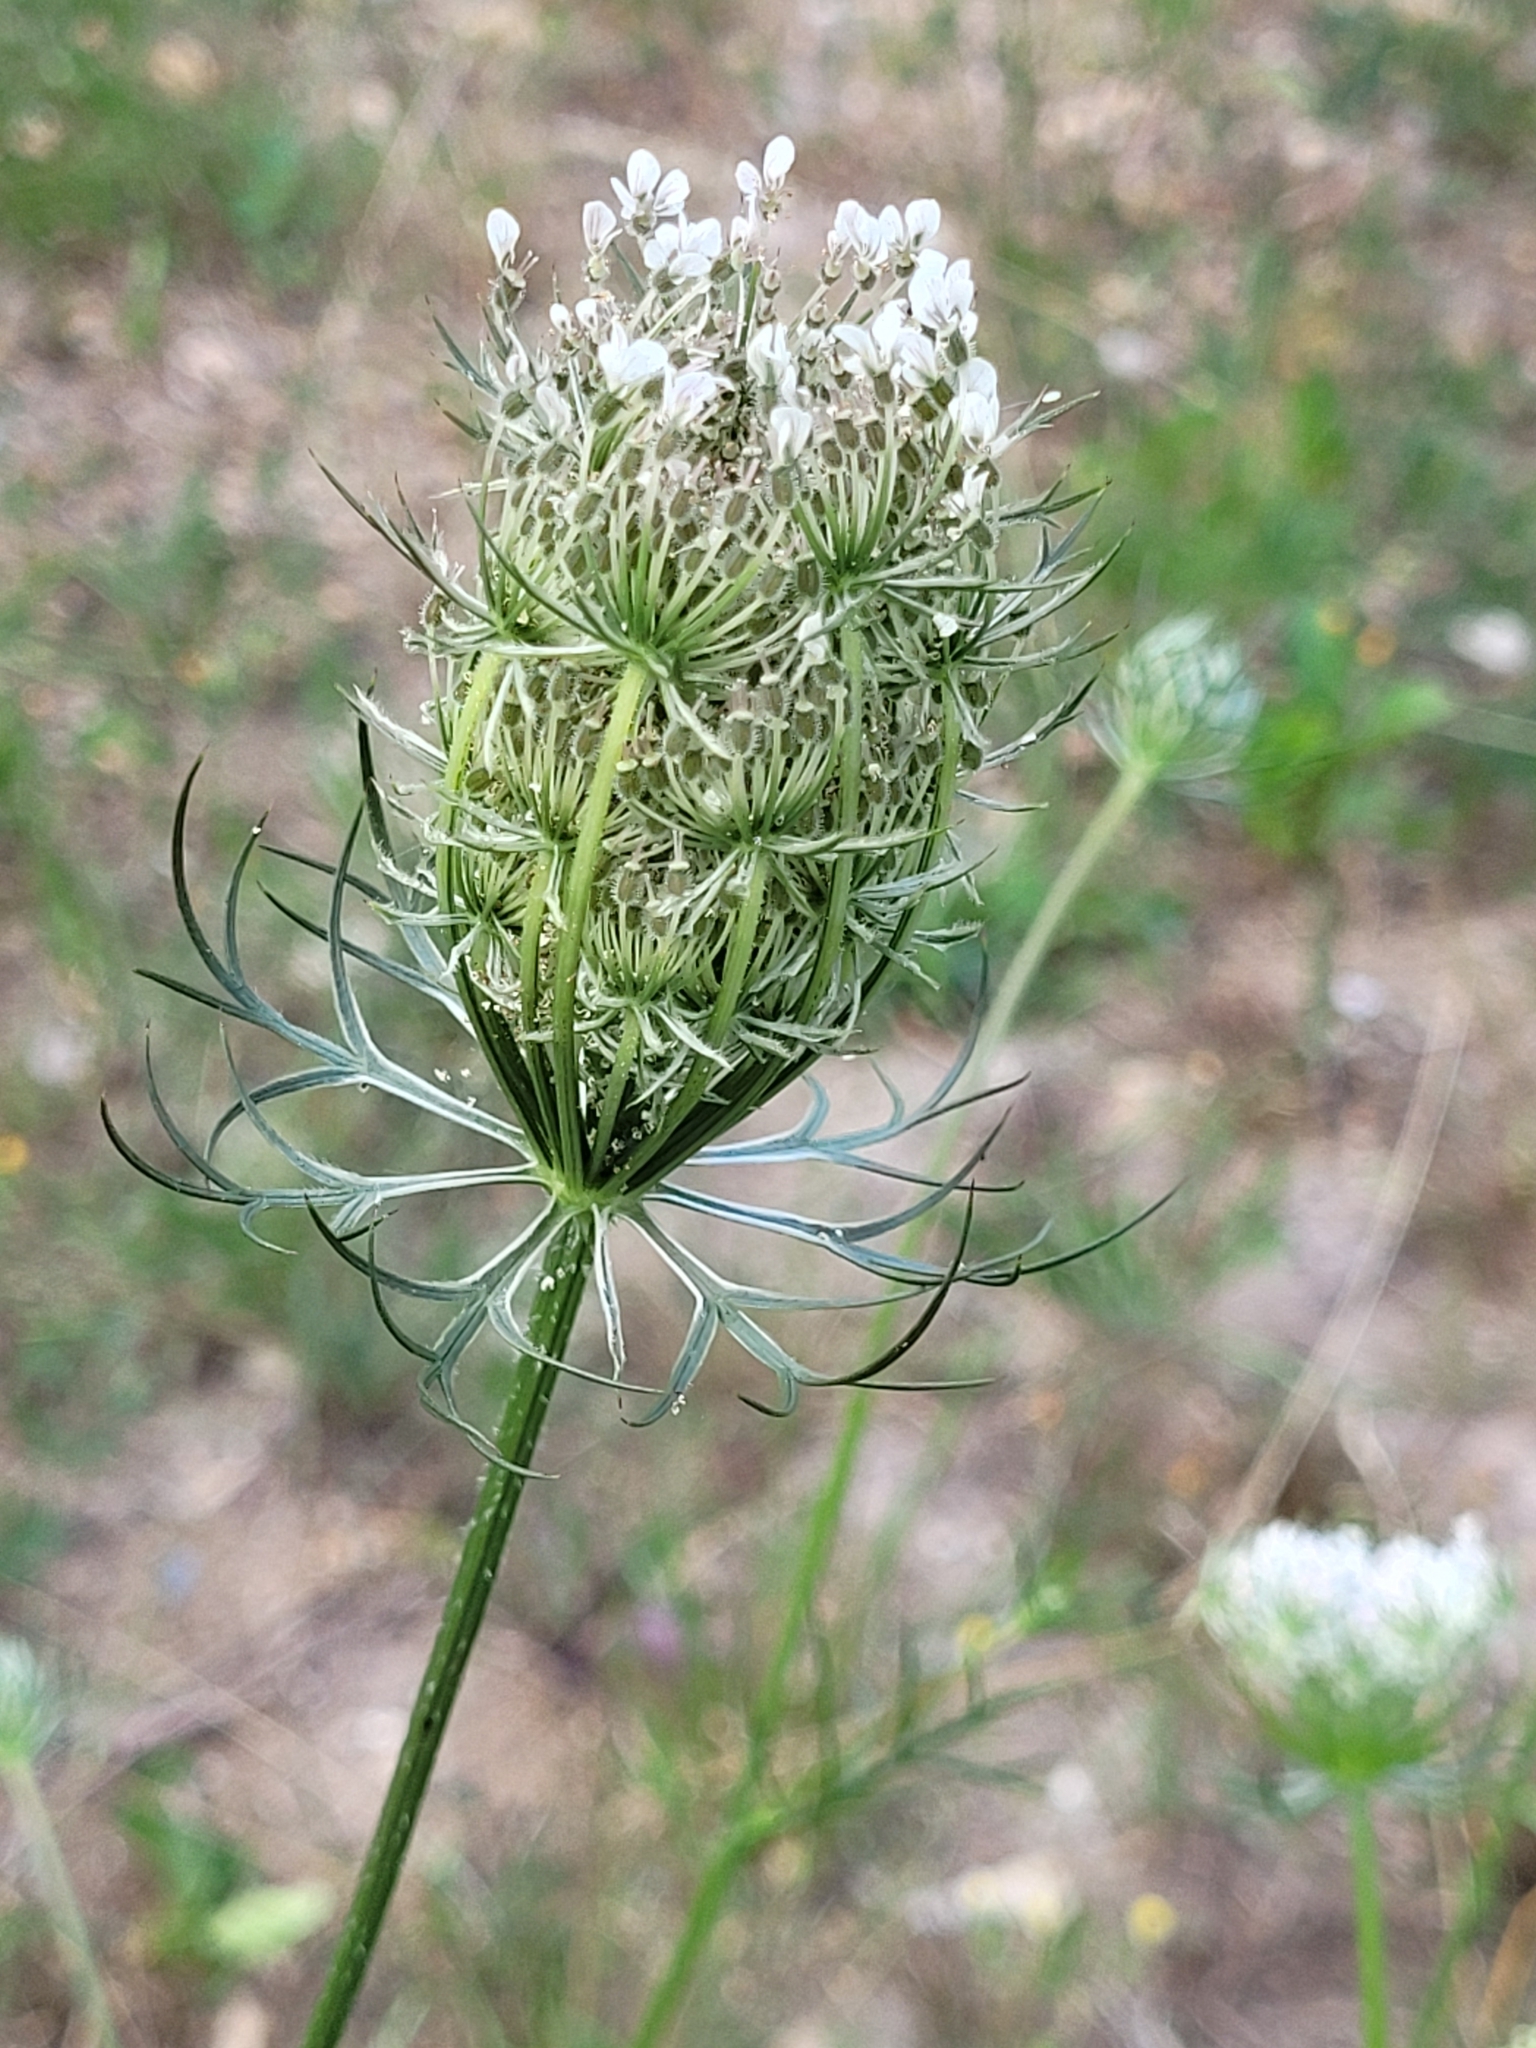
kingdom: Plantae
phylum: Tracheophyta
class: Magnoliopsida
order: Apiales
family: Apiaceae
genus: Daucus
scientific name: Daucus carota
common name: Wild carrot
